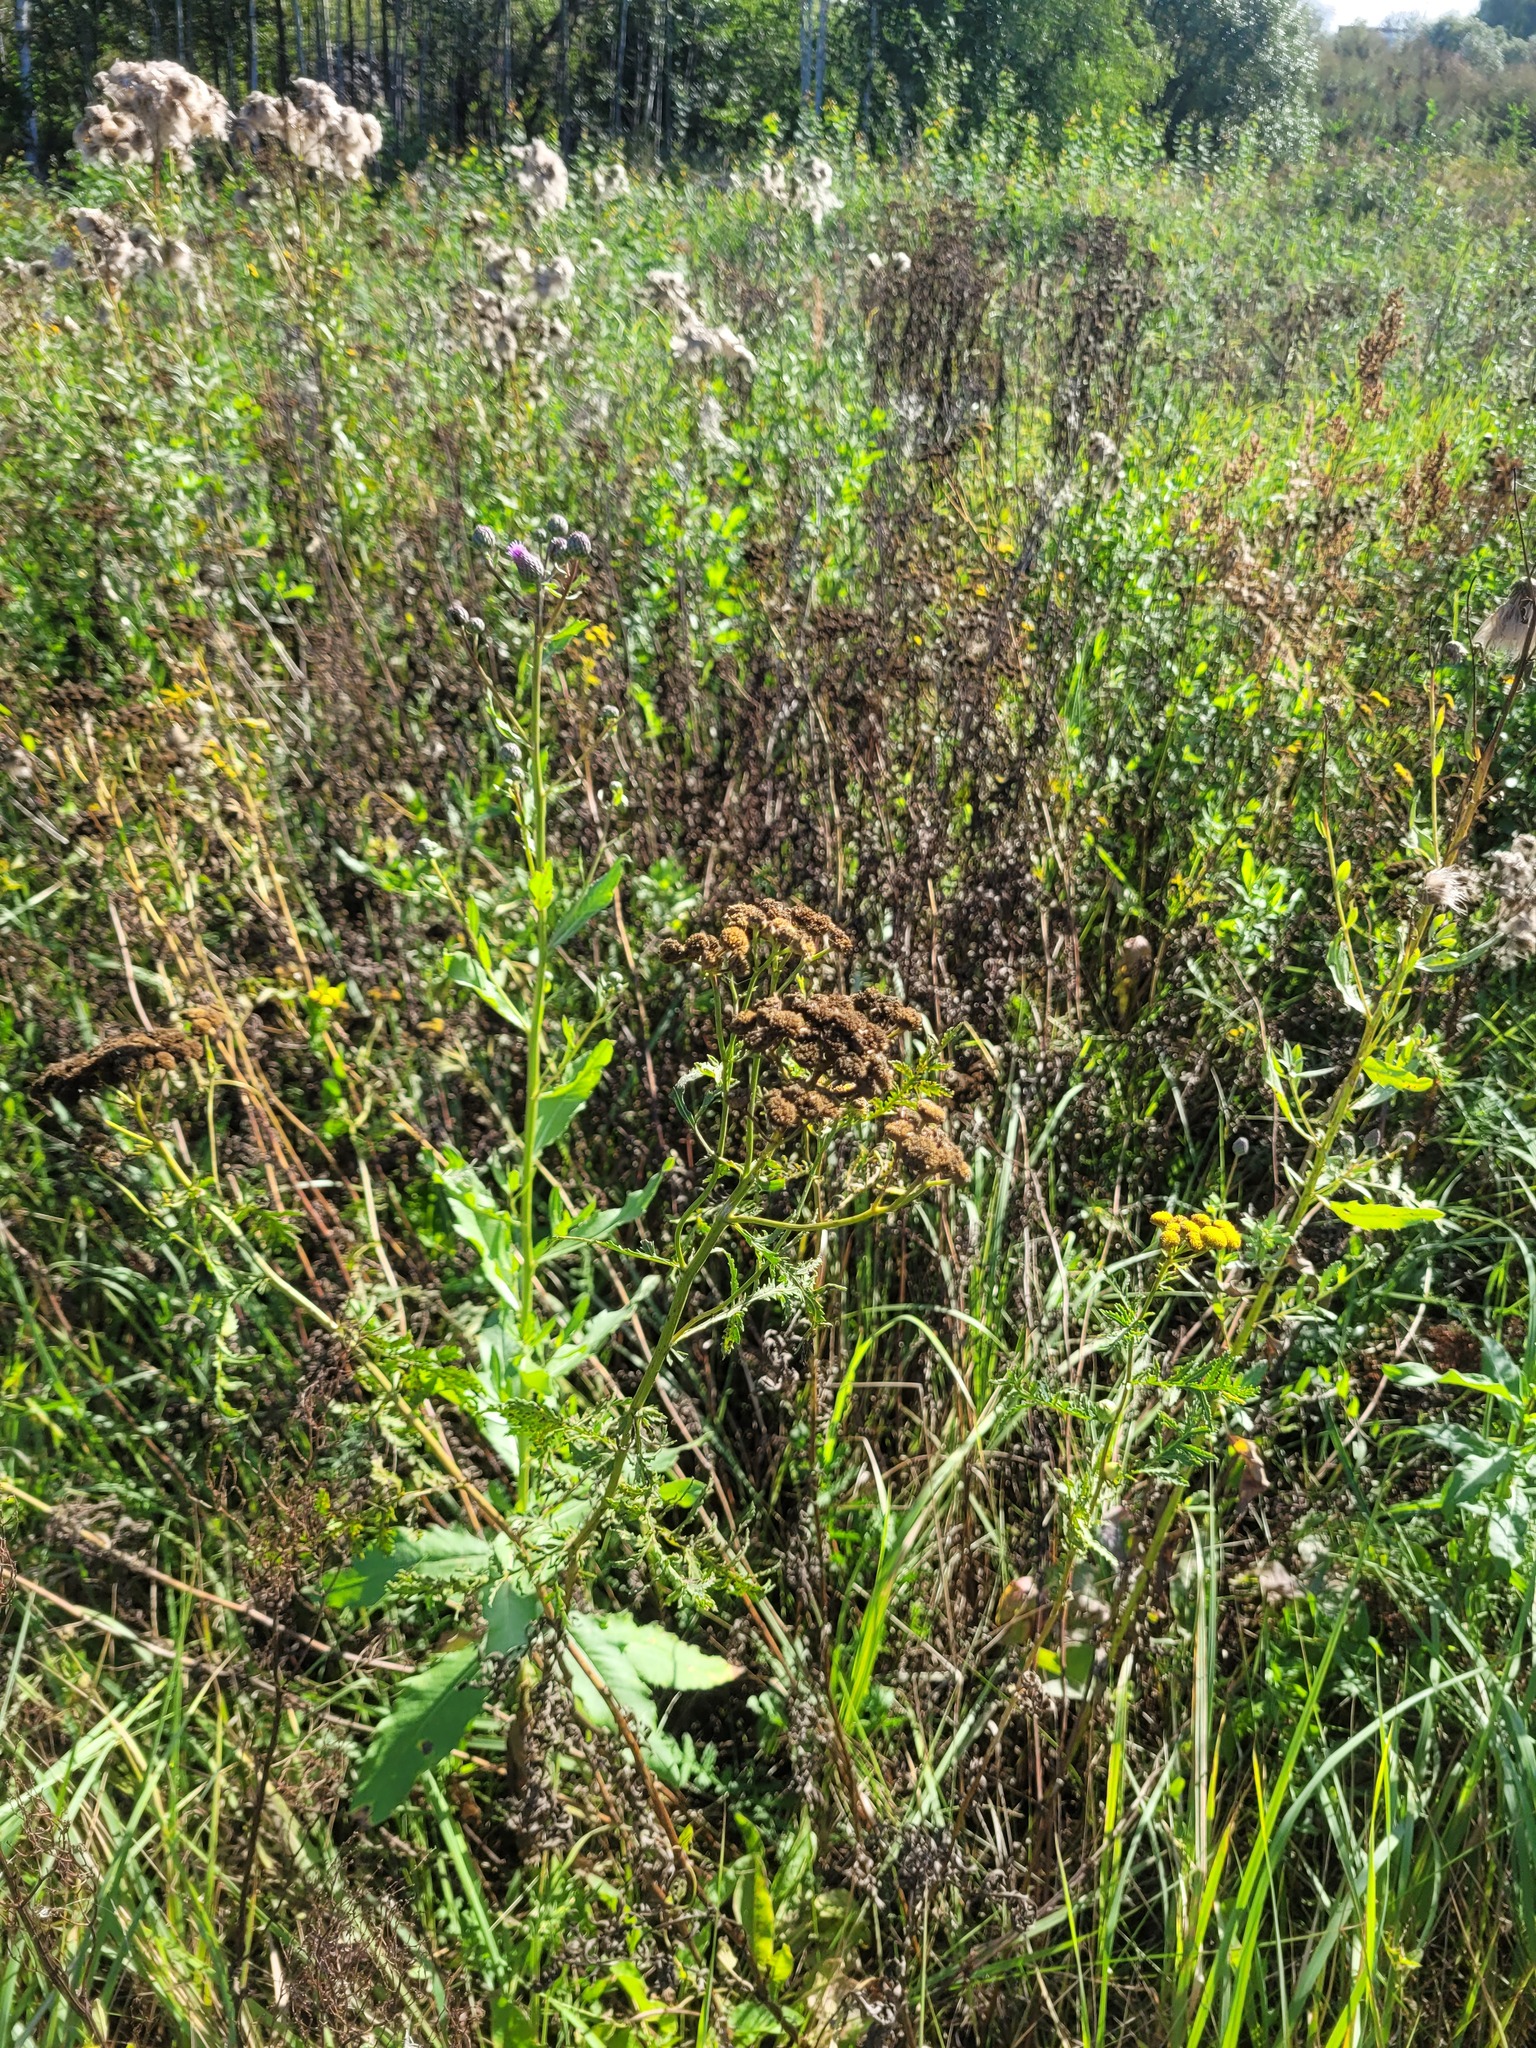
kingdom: Plantae
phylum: Tracheophyta
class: Magnoliopsida
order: Asterales
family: Asteraceae
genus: Tanacetum
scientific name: Tanacetum vulgare
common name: Common tansy
